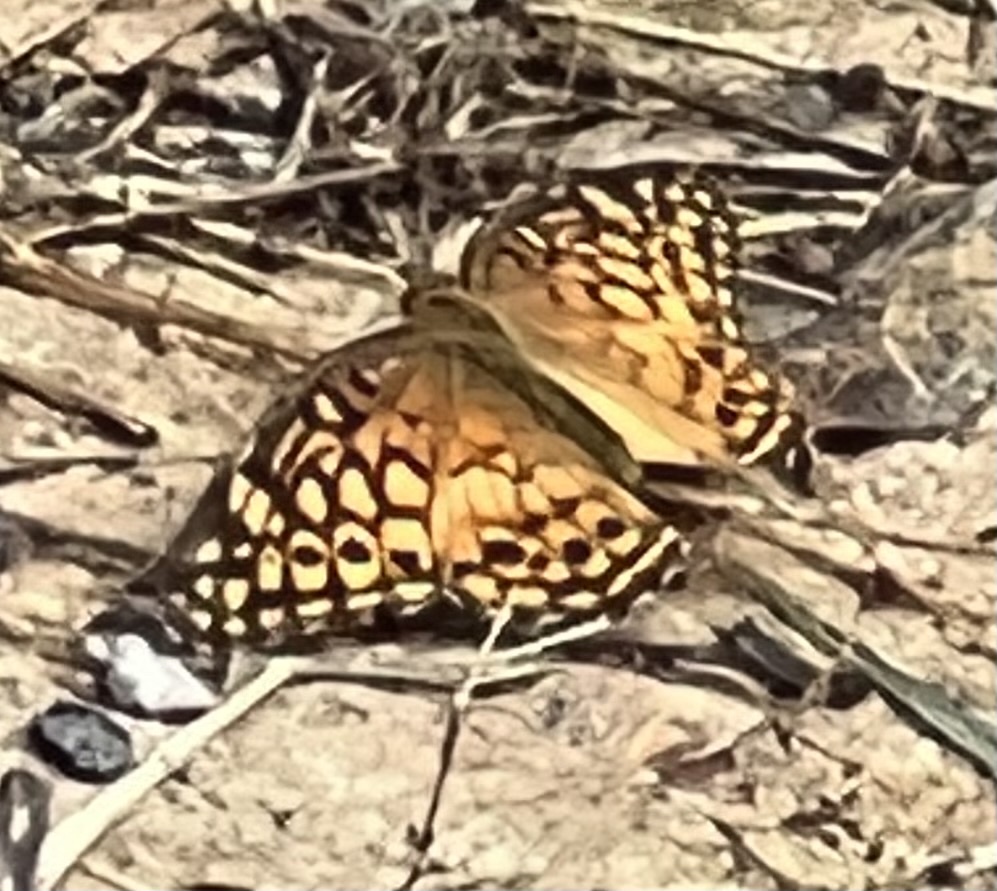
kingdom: Animalia
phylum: Arthropoda
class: Insecta
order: Lepidoptera
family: Nymphalidae
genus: Euptoieta
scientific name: Euptoieta claudia
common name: Variegated fritillary
